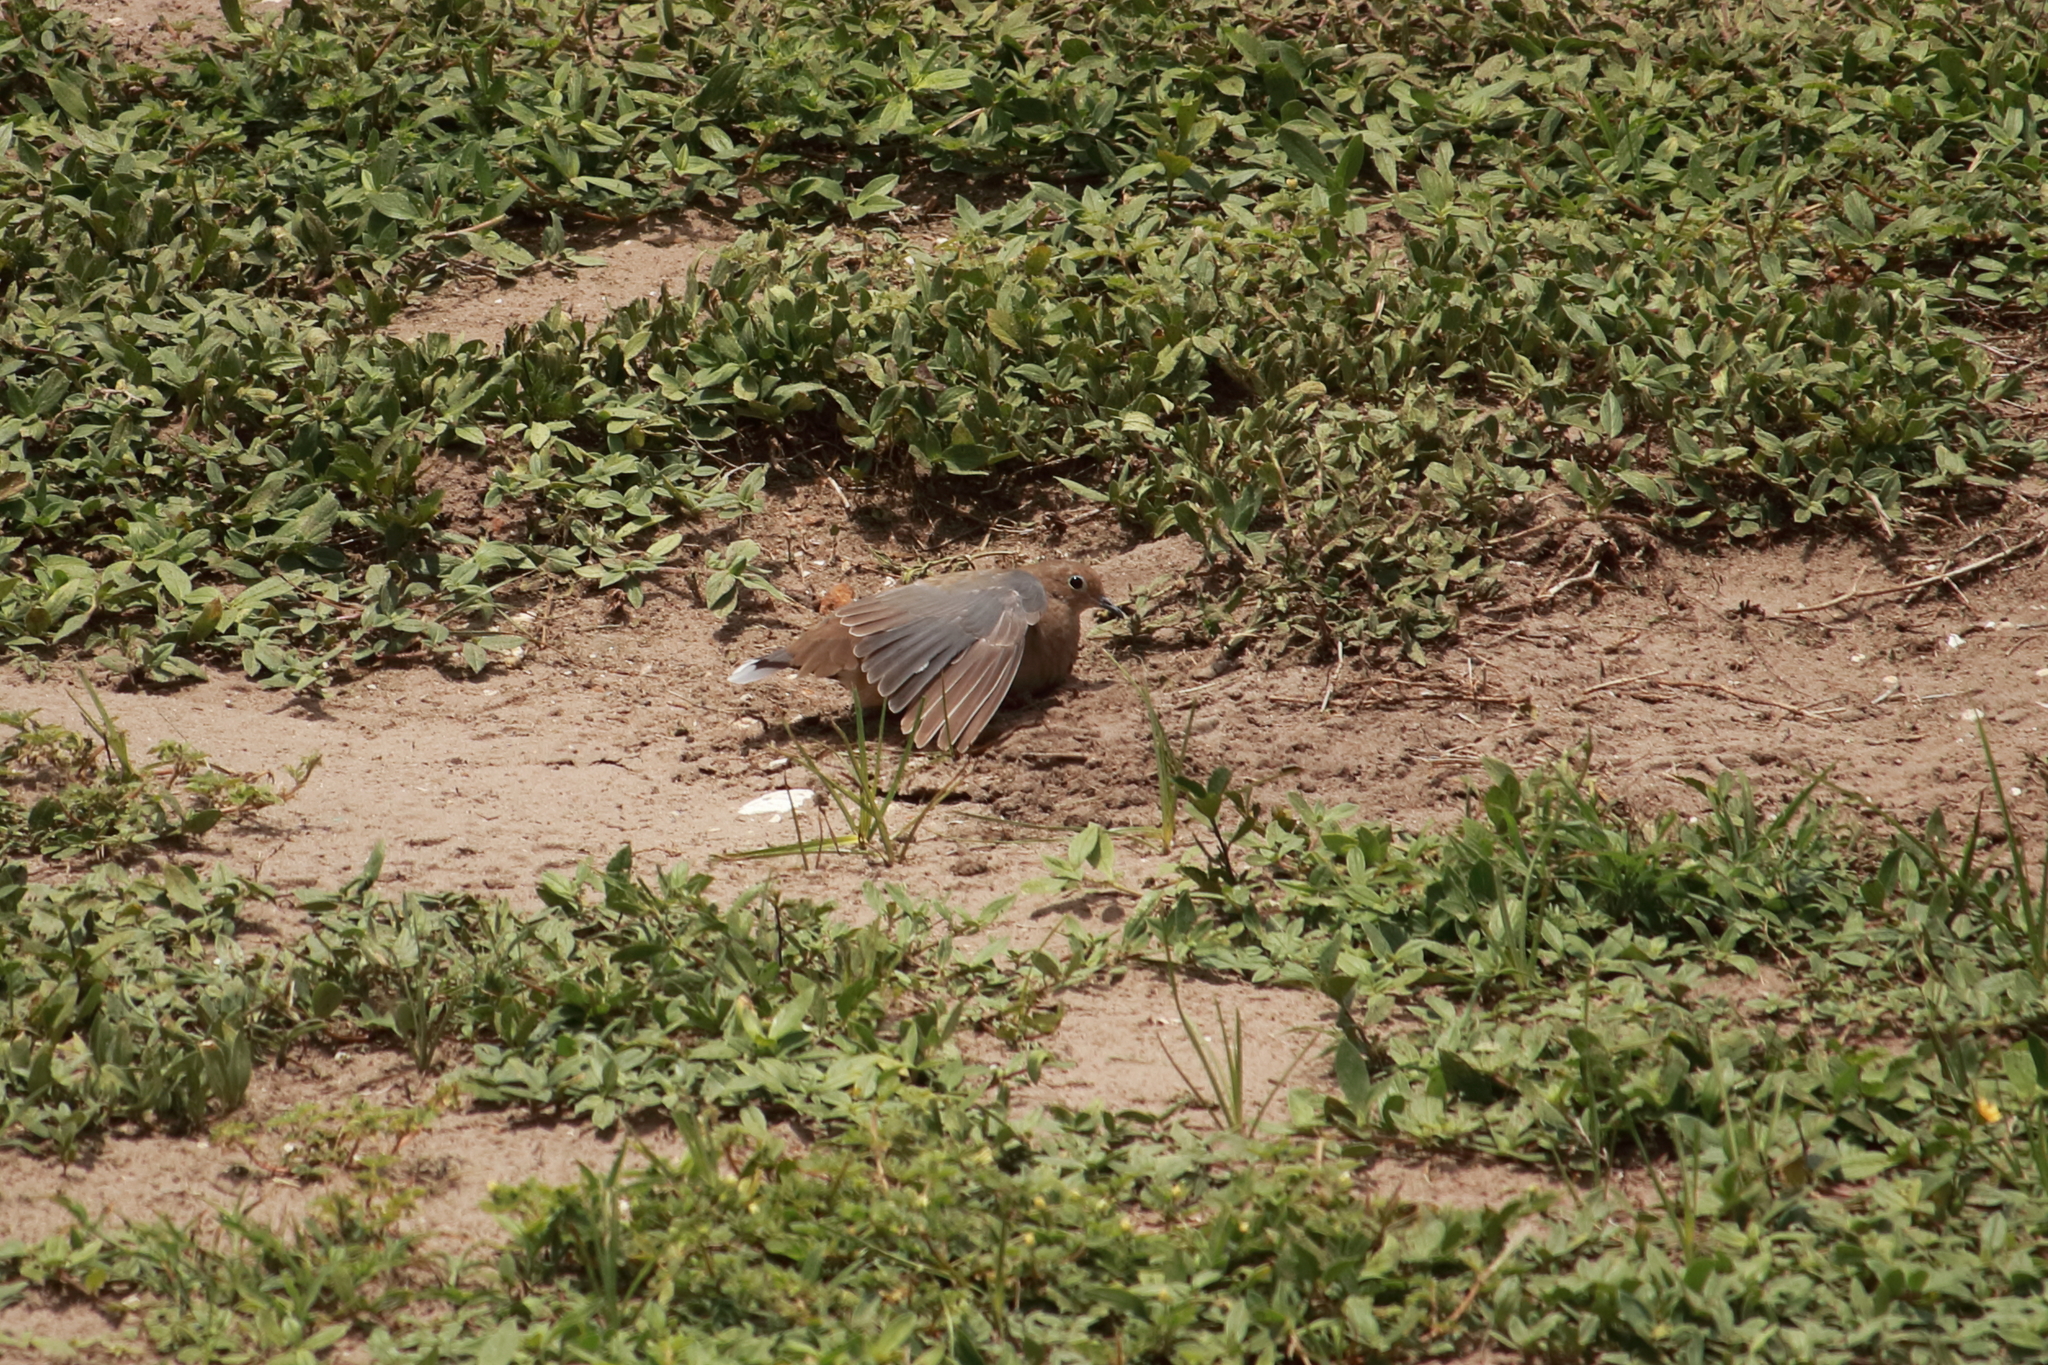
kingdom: Animalia
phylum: Chordata
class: Aves
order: Columbiformes
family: Columbidae
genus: Zenaida
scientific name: Zenaida macroura
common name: Mourning dove
